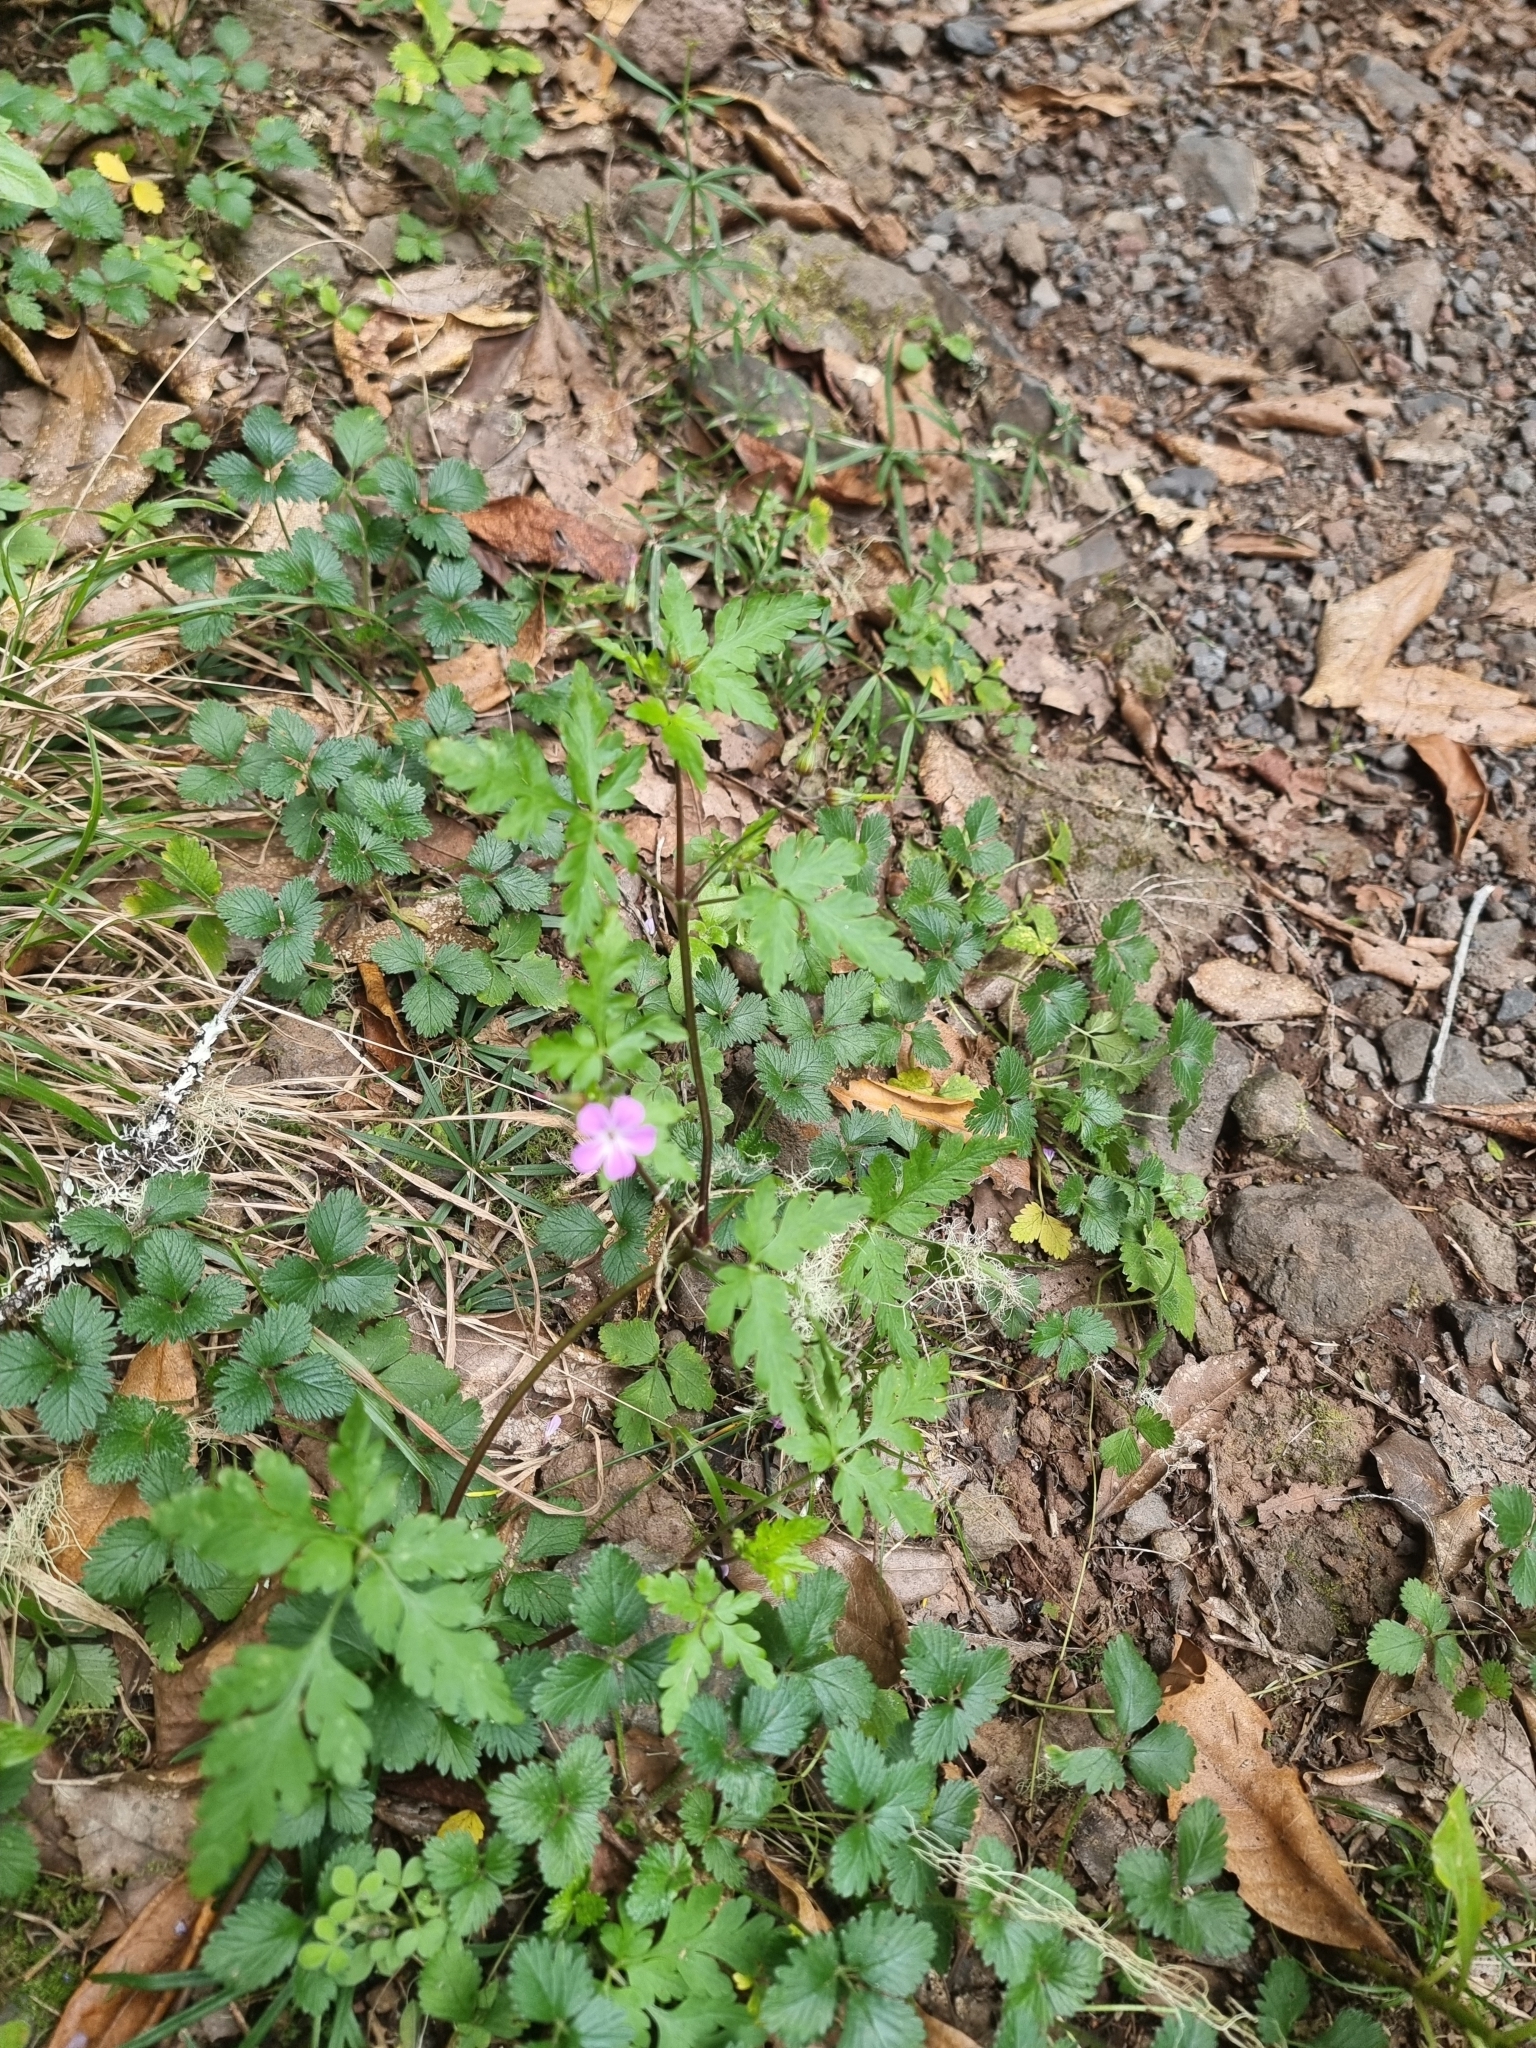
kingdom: Plantae
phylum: Tracheophyta
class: Magnoliopsida
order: Geraniales
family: Geraniaceae
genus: Geranium
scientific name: Geranium robertianum
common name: Herb-robert
